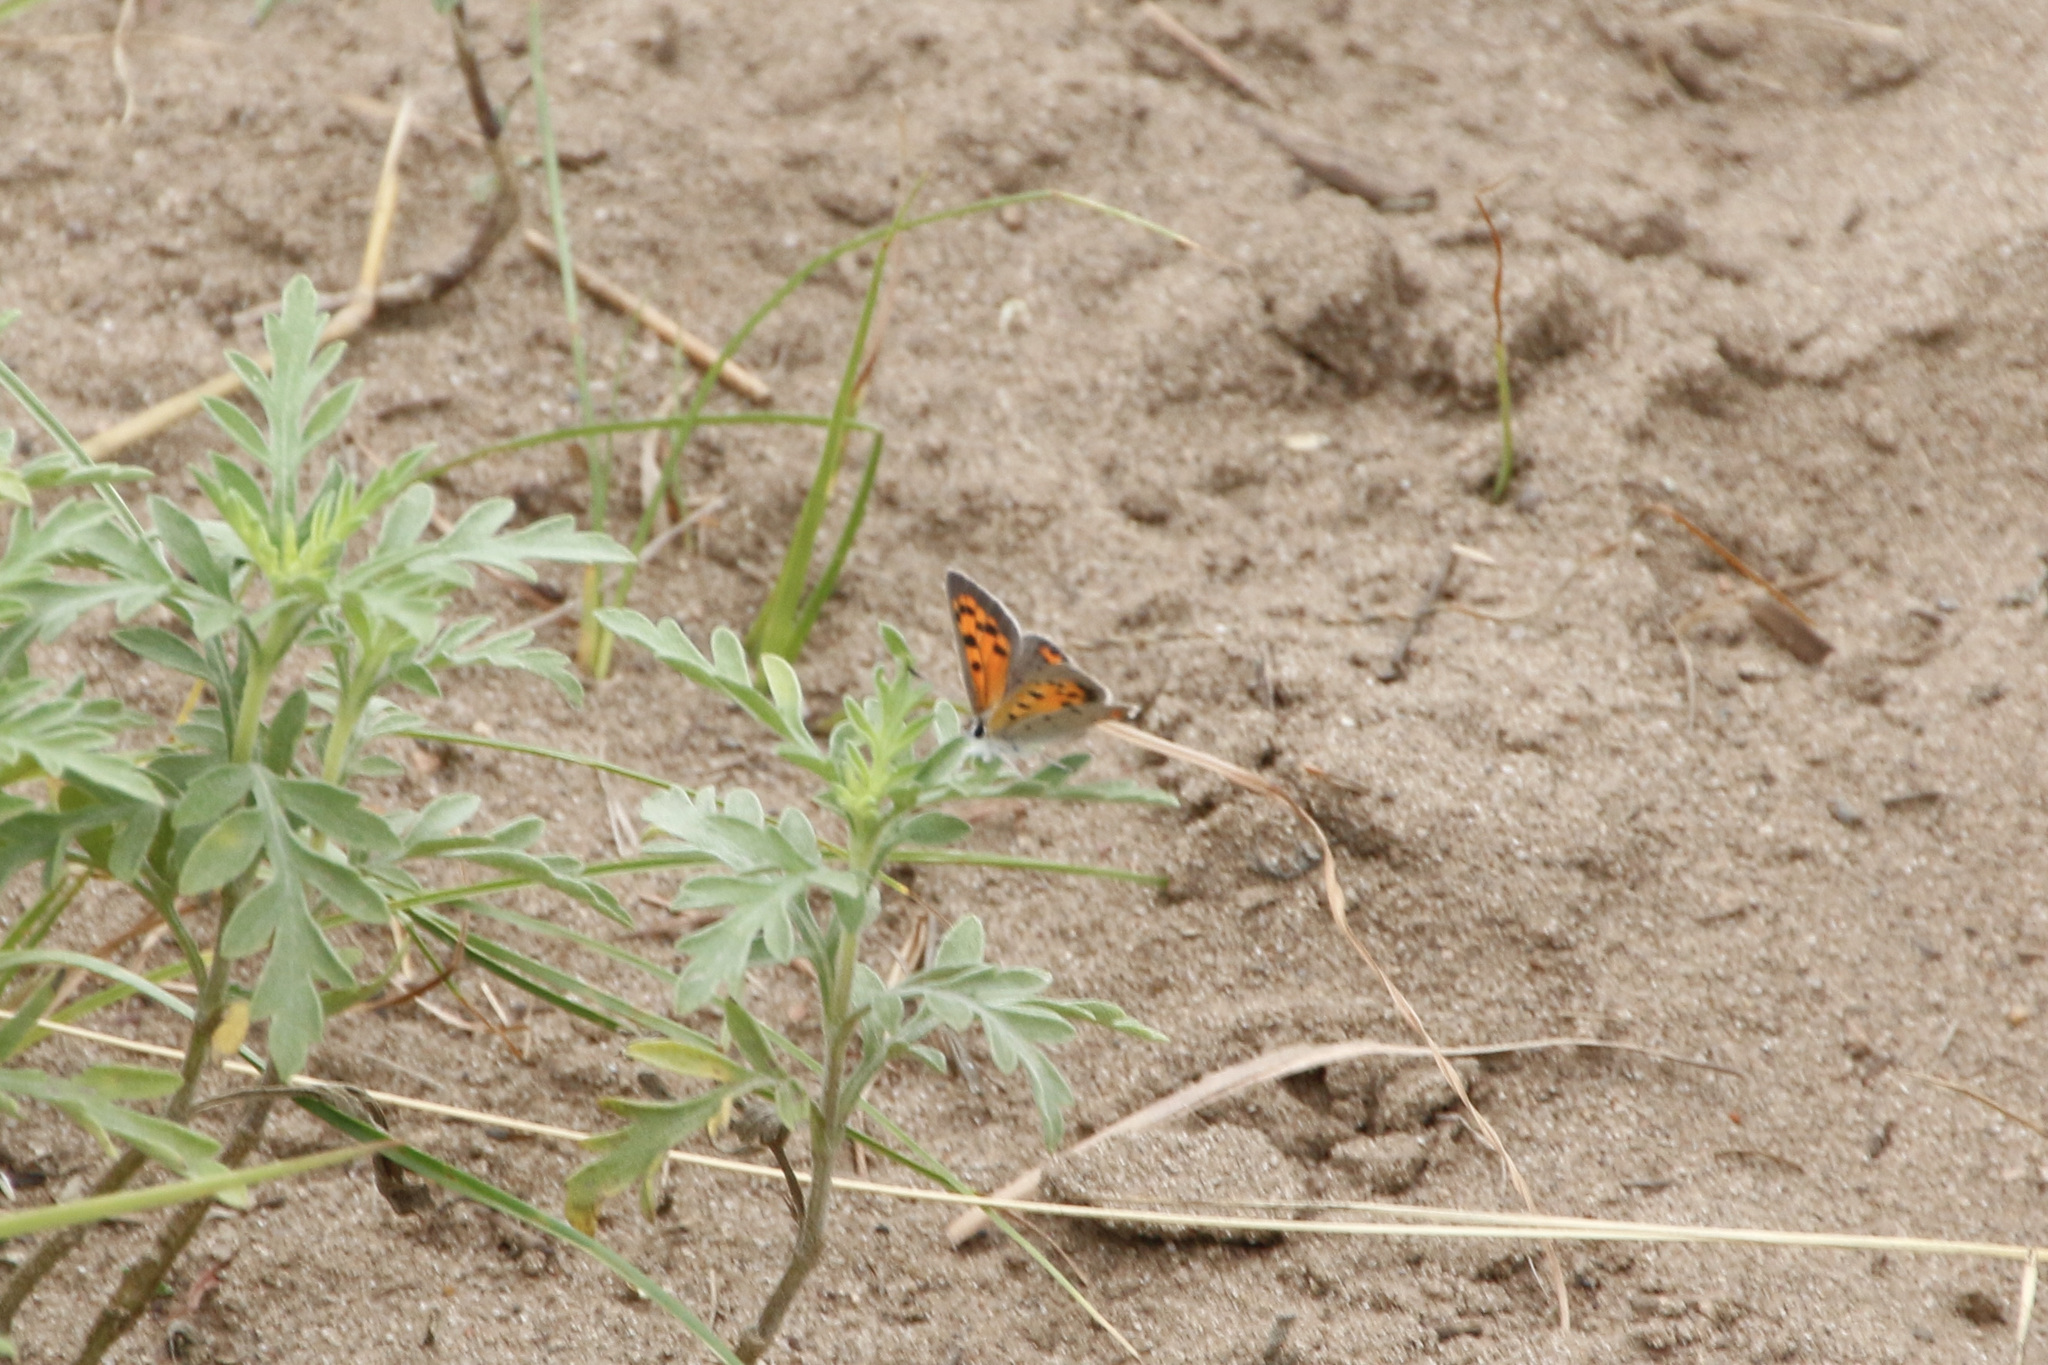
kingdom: Animalia
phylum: Arthropoda
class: Insecta
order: Lepidoptera
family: Lycaenidae
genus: Lycaena
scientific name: Lycaena hypophlaeas
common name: American copper
